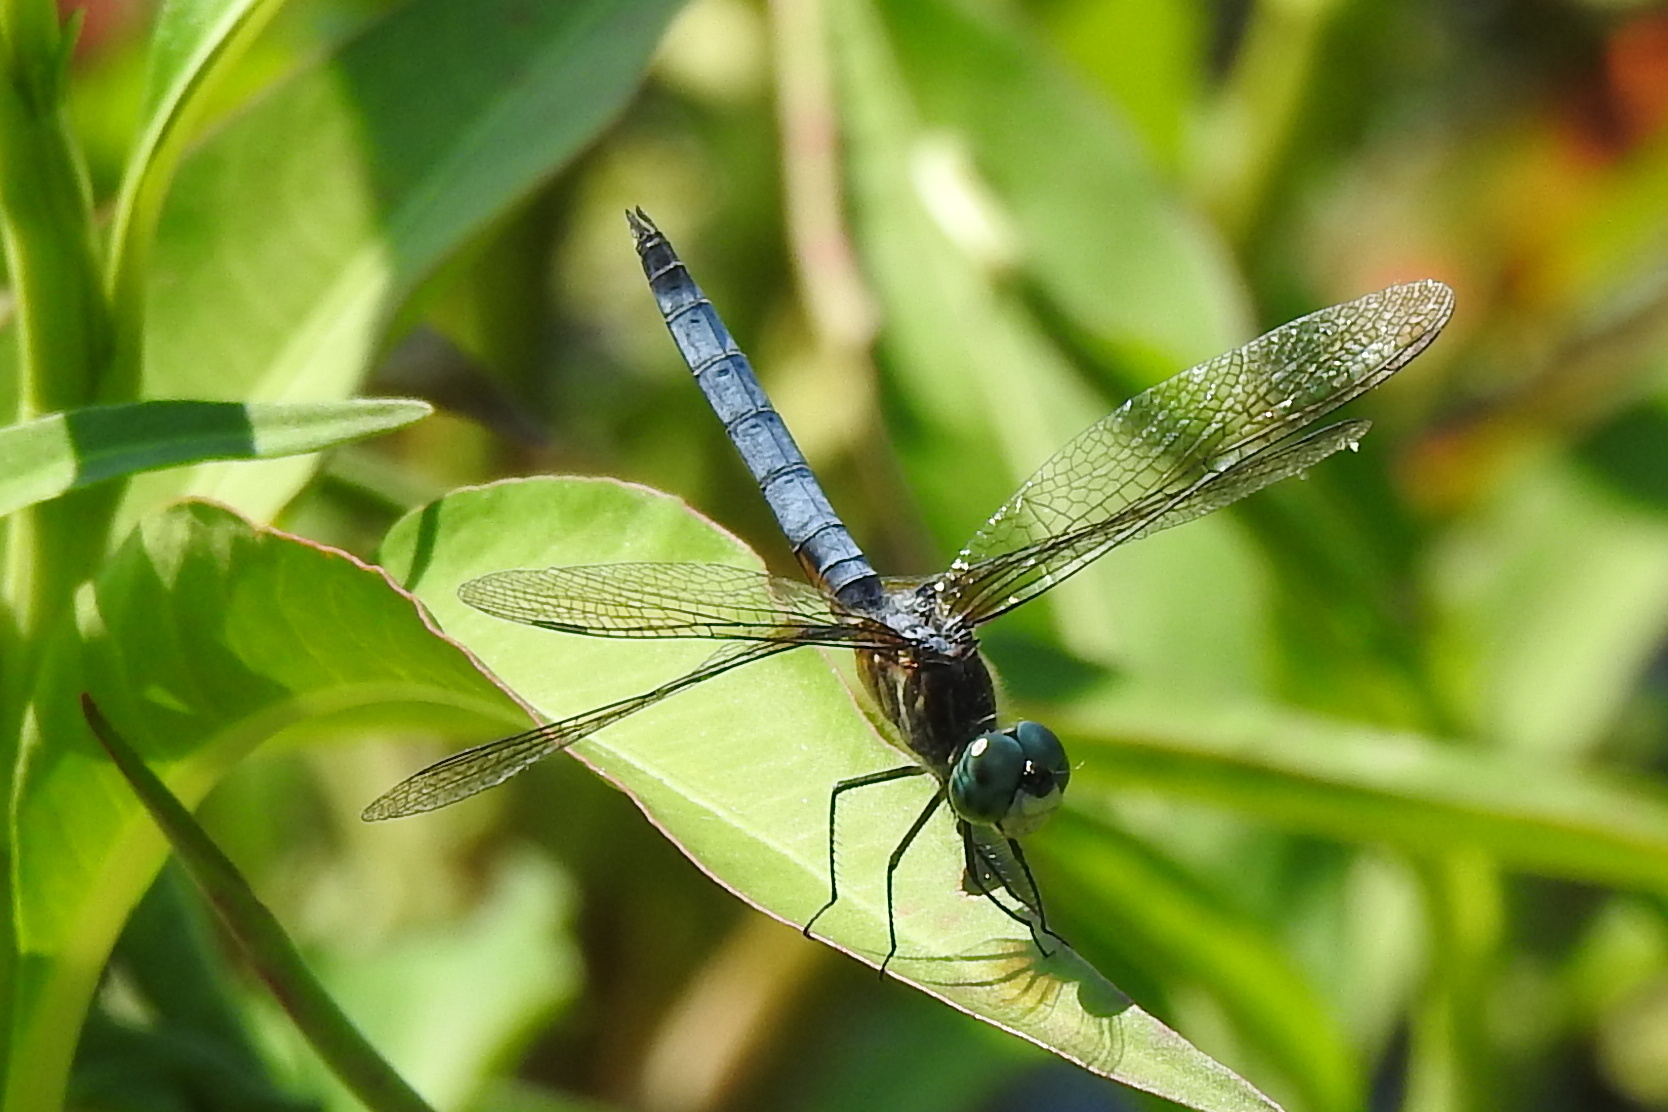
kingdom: Animalia
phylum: Arthropoda
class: Insecta
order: Odonata
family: Libellulidae
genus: Pachydiplax
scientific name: Pachydiplax longipennis
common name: Blue dasher
